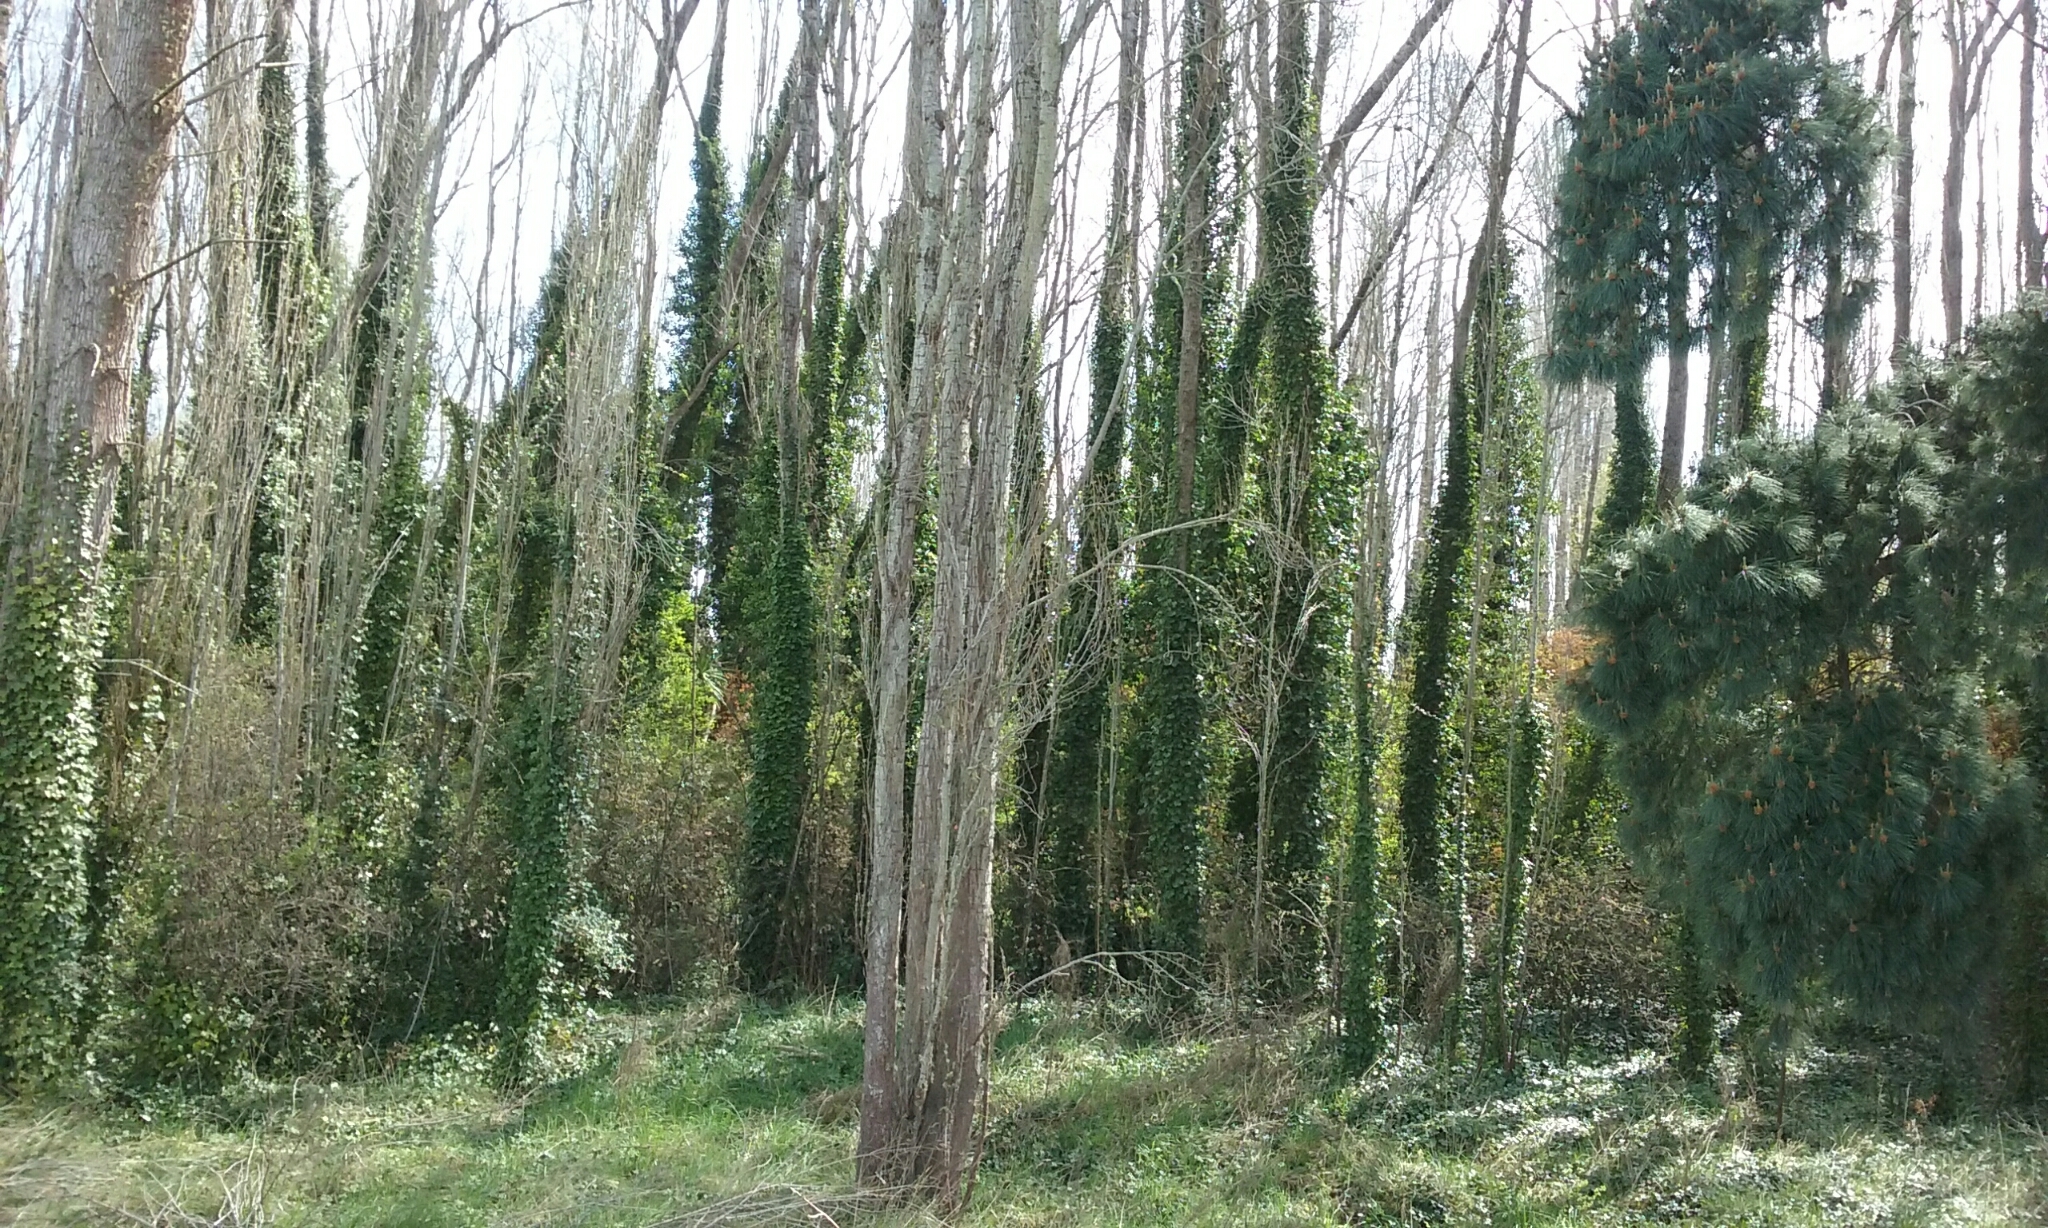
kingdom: Plantae
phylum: Tracheophyta
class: Magnoliopsida
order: Apiales
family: Araliaceae
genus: Hedera
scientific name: Hedera helix
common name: Ivy
